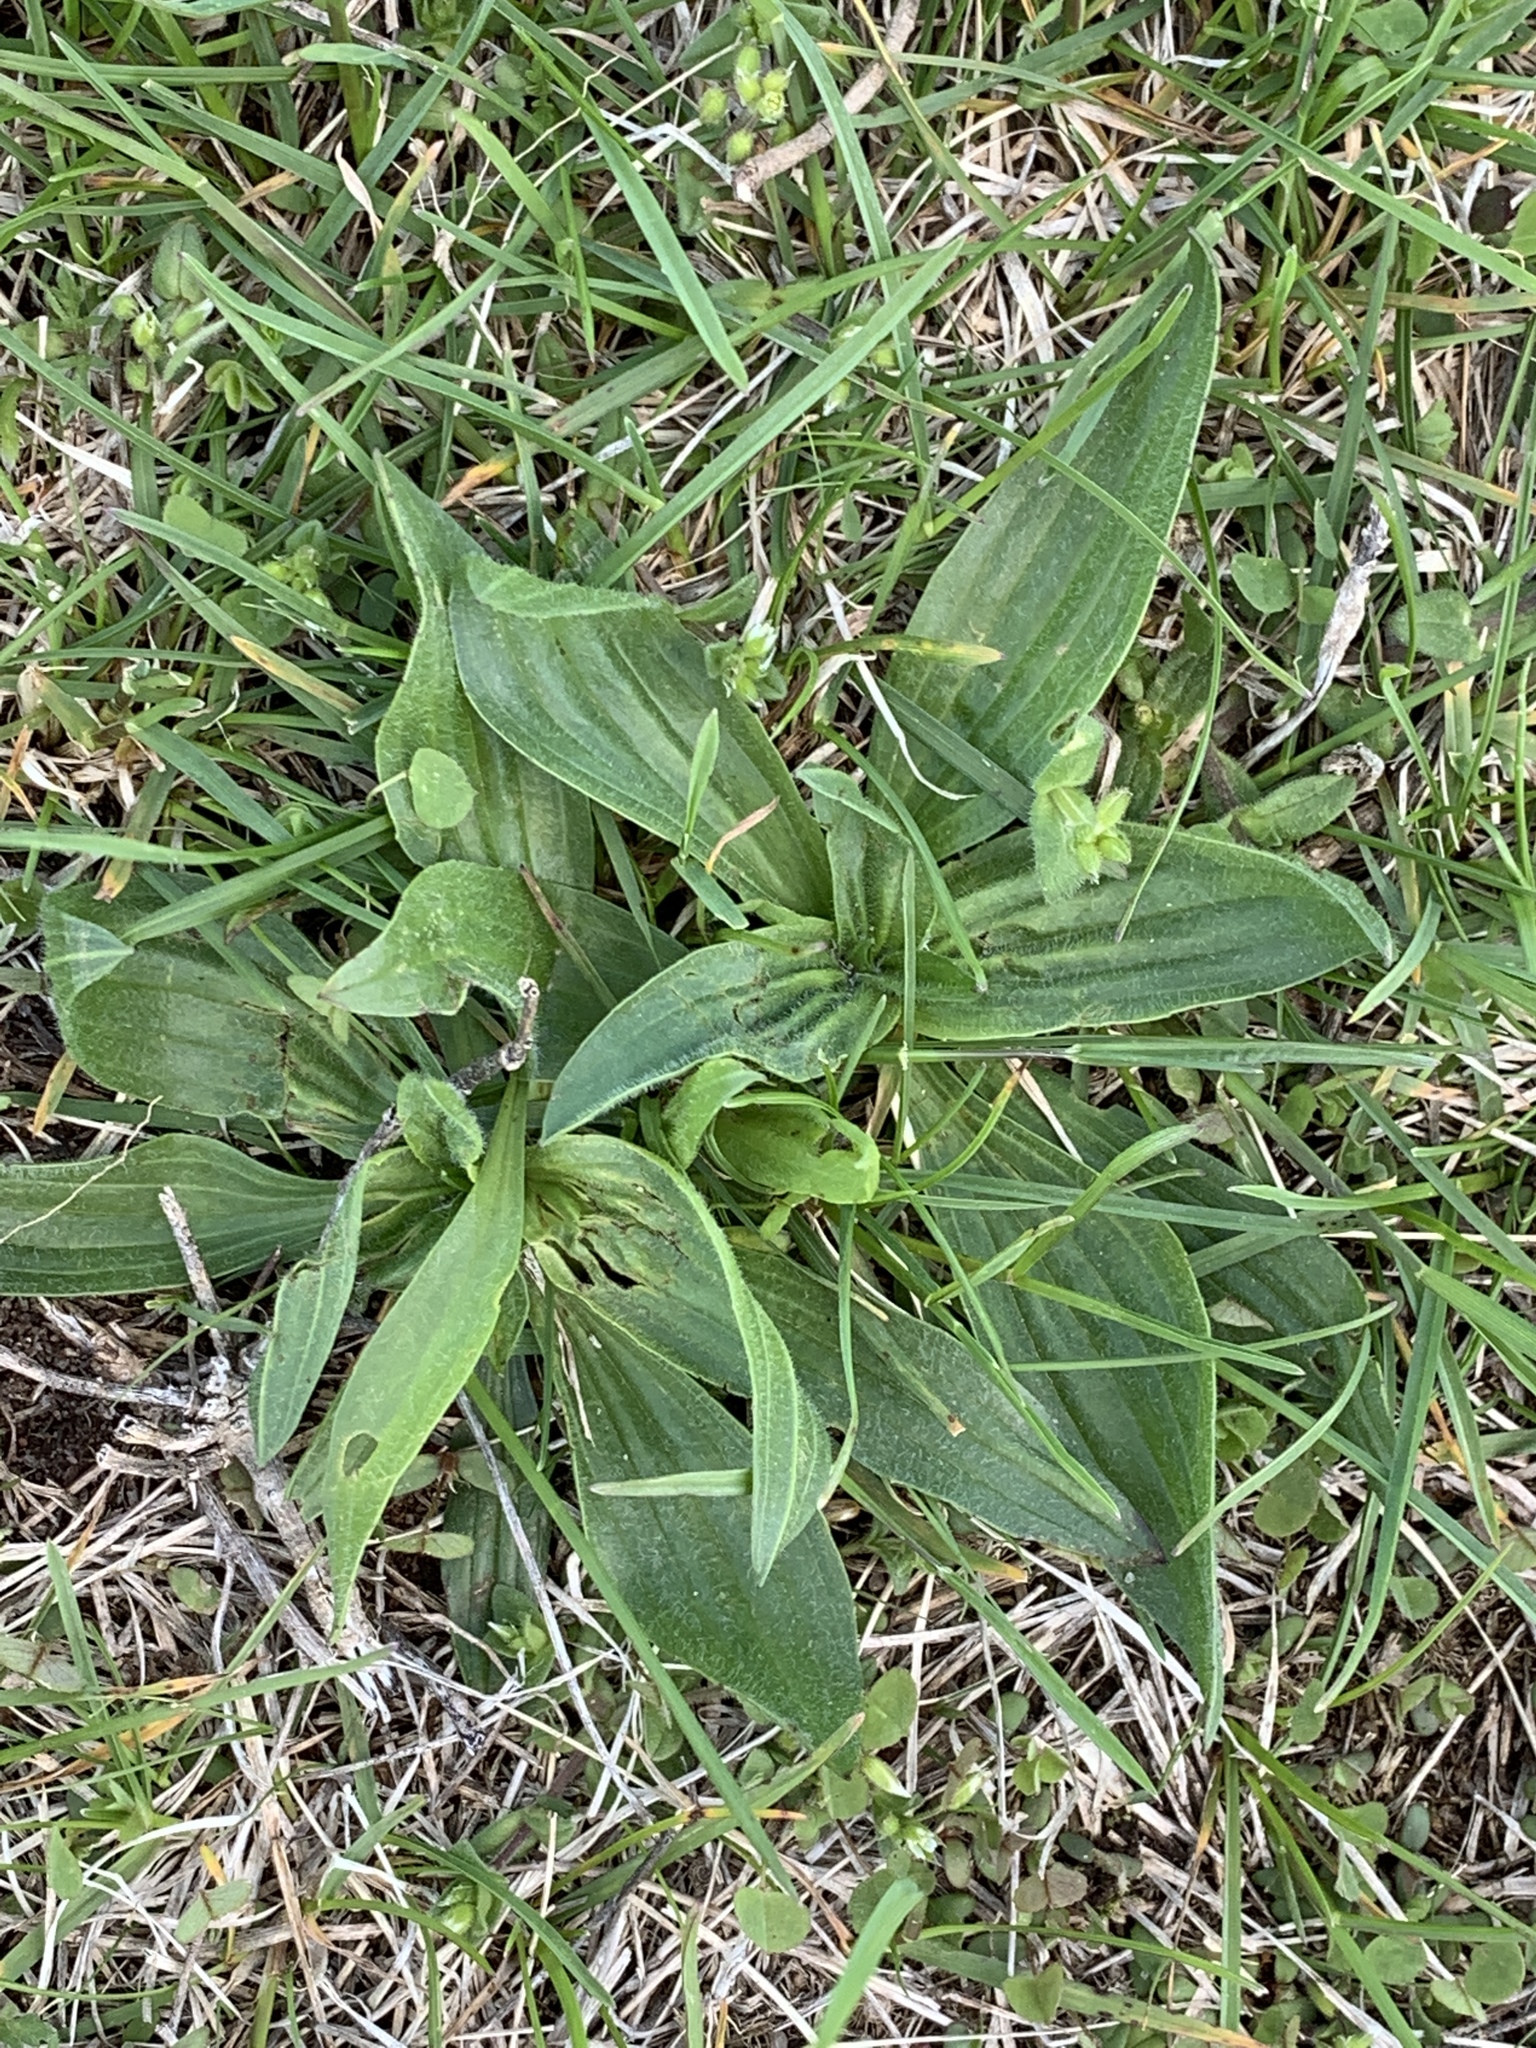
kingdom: Plantae
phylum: Tracheophyta
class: Magnoliopsida
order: Lamiales
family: Plantaginaceae
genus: Plantago
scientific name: Plantago lanceolata
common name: Ribwort plantain
